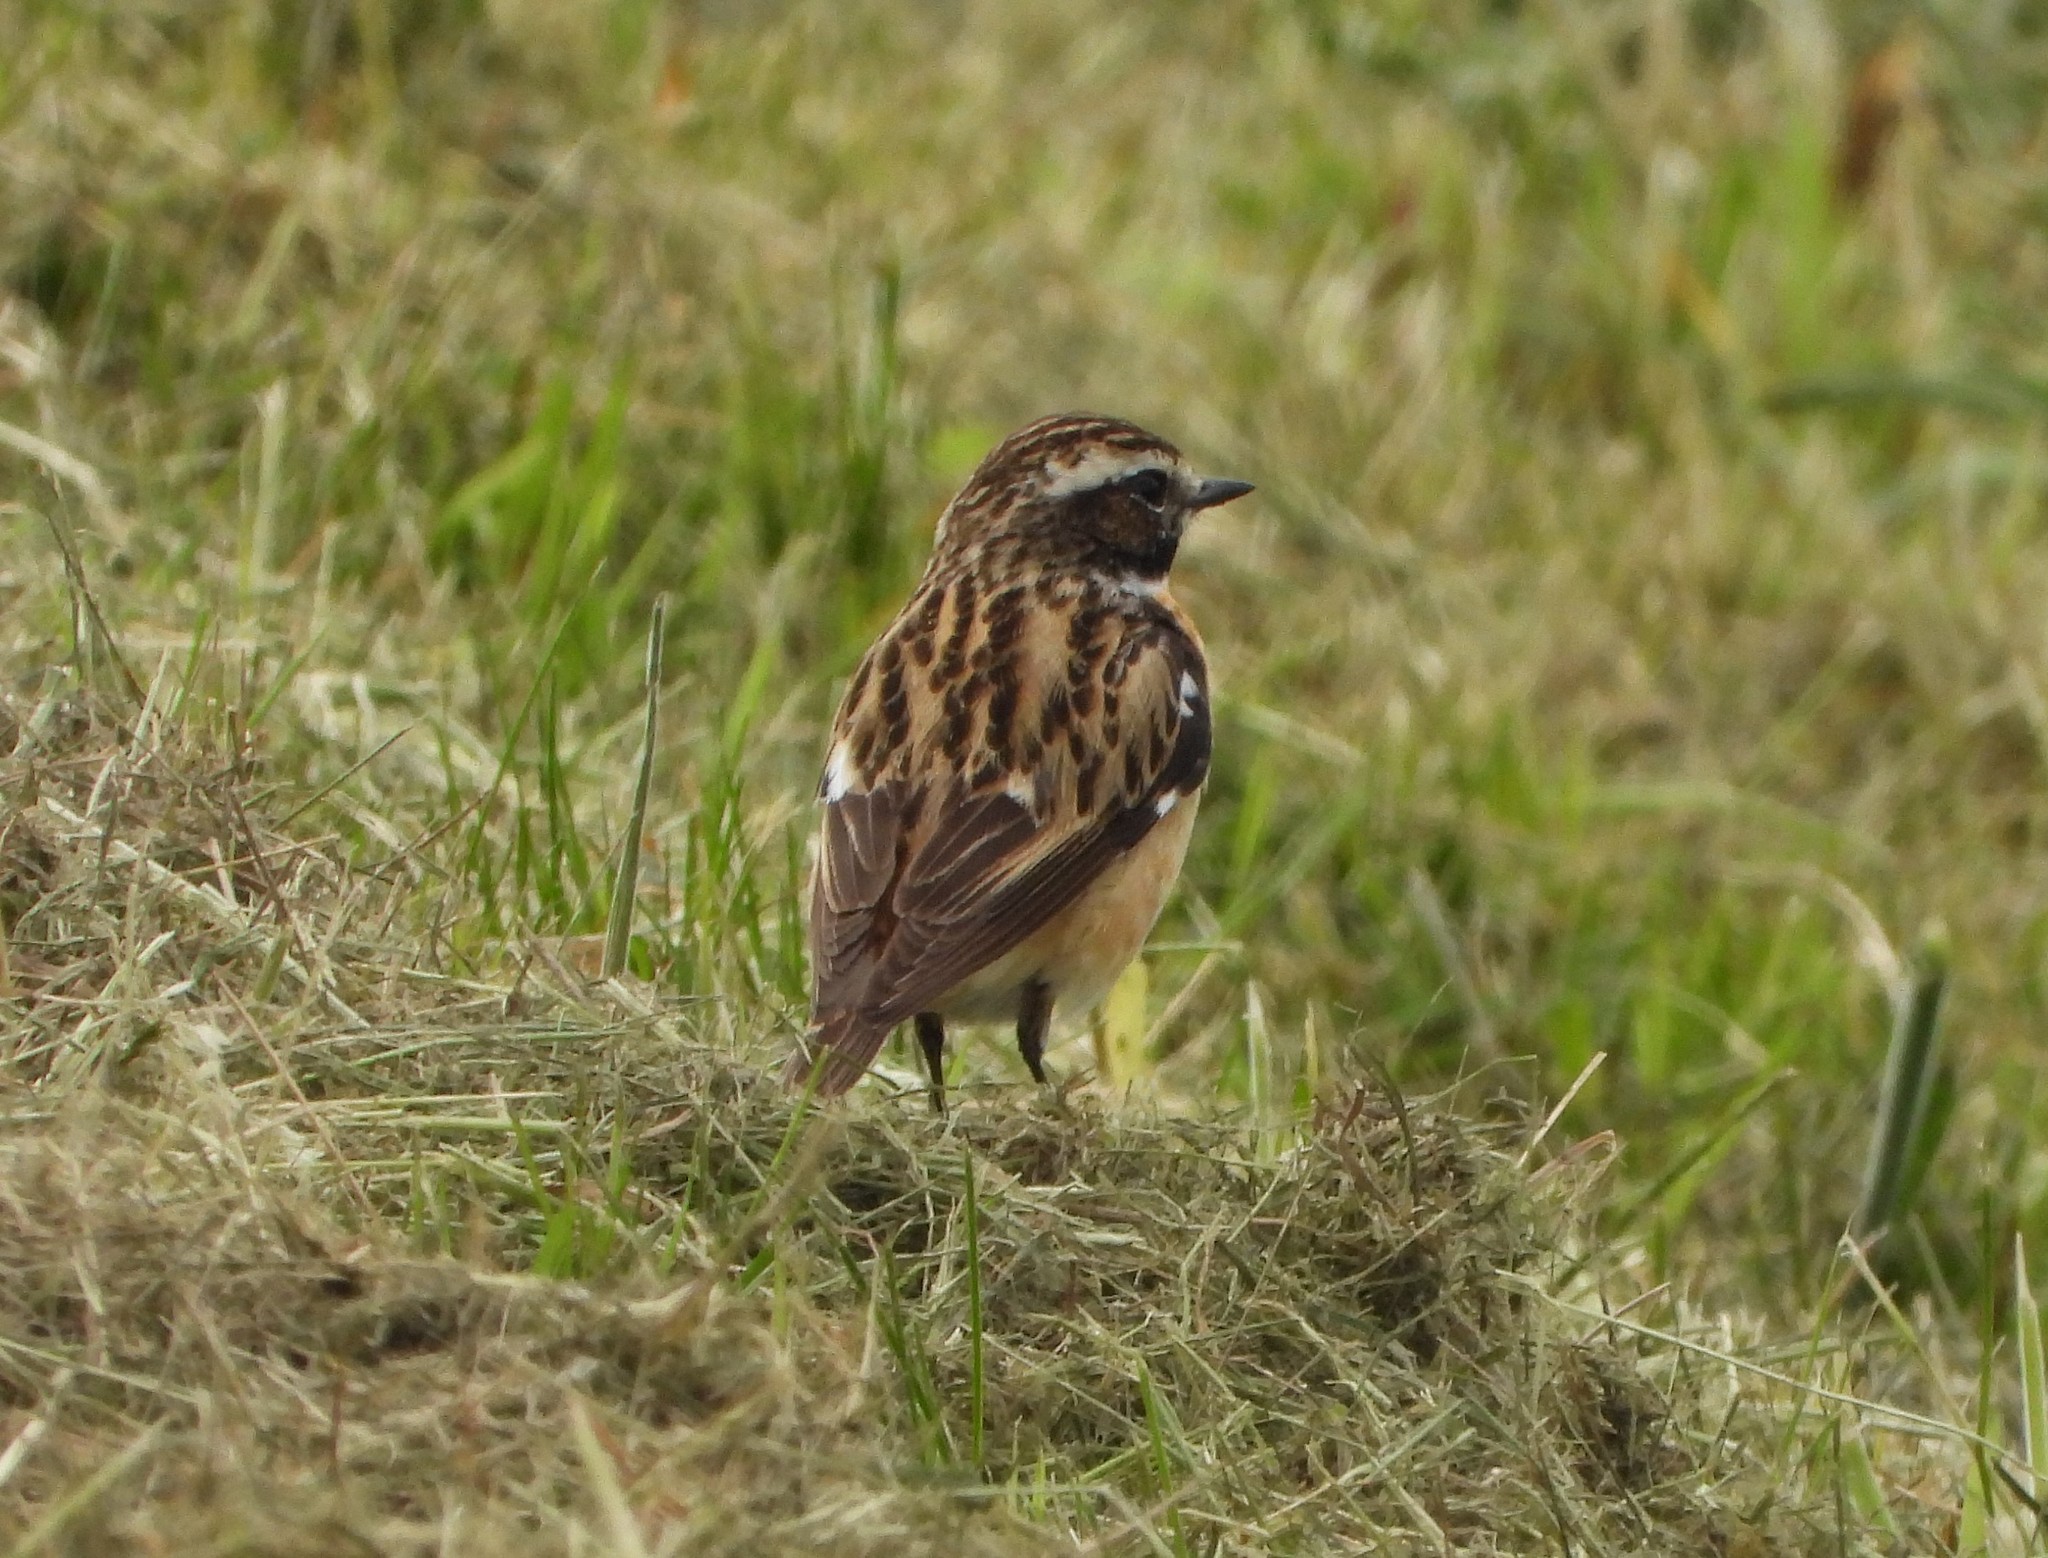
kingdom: Animalia
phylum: Chordata
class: Aves
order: Passeriformes
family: Muscicapidae
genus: Saxicola
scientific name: Saxicola rubetra
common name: Whinchat
